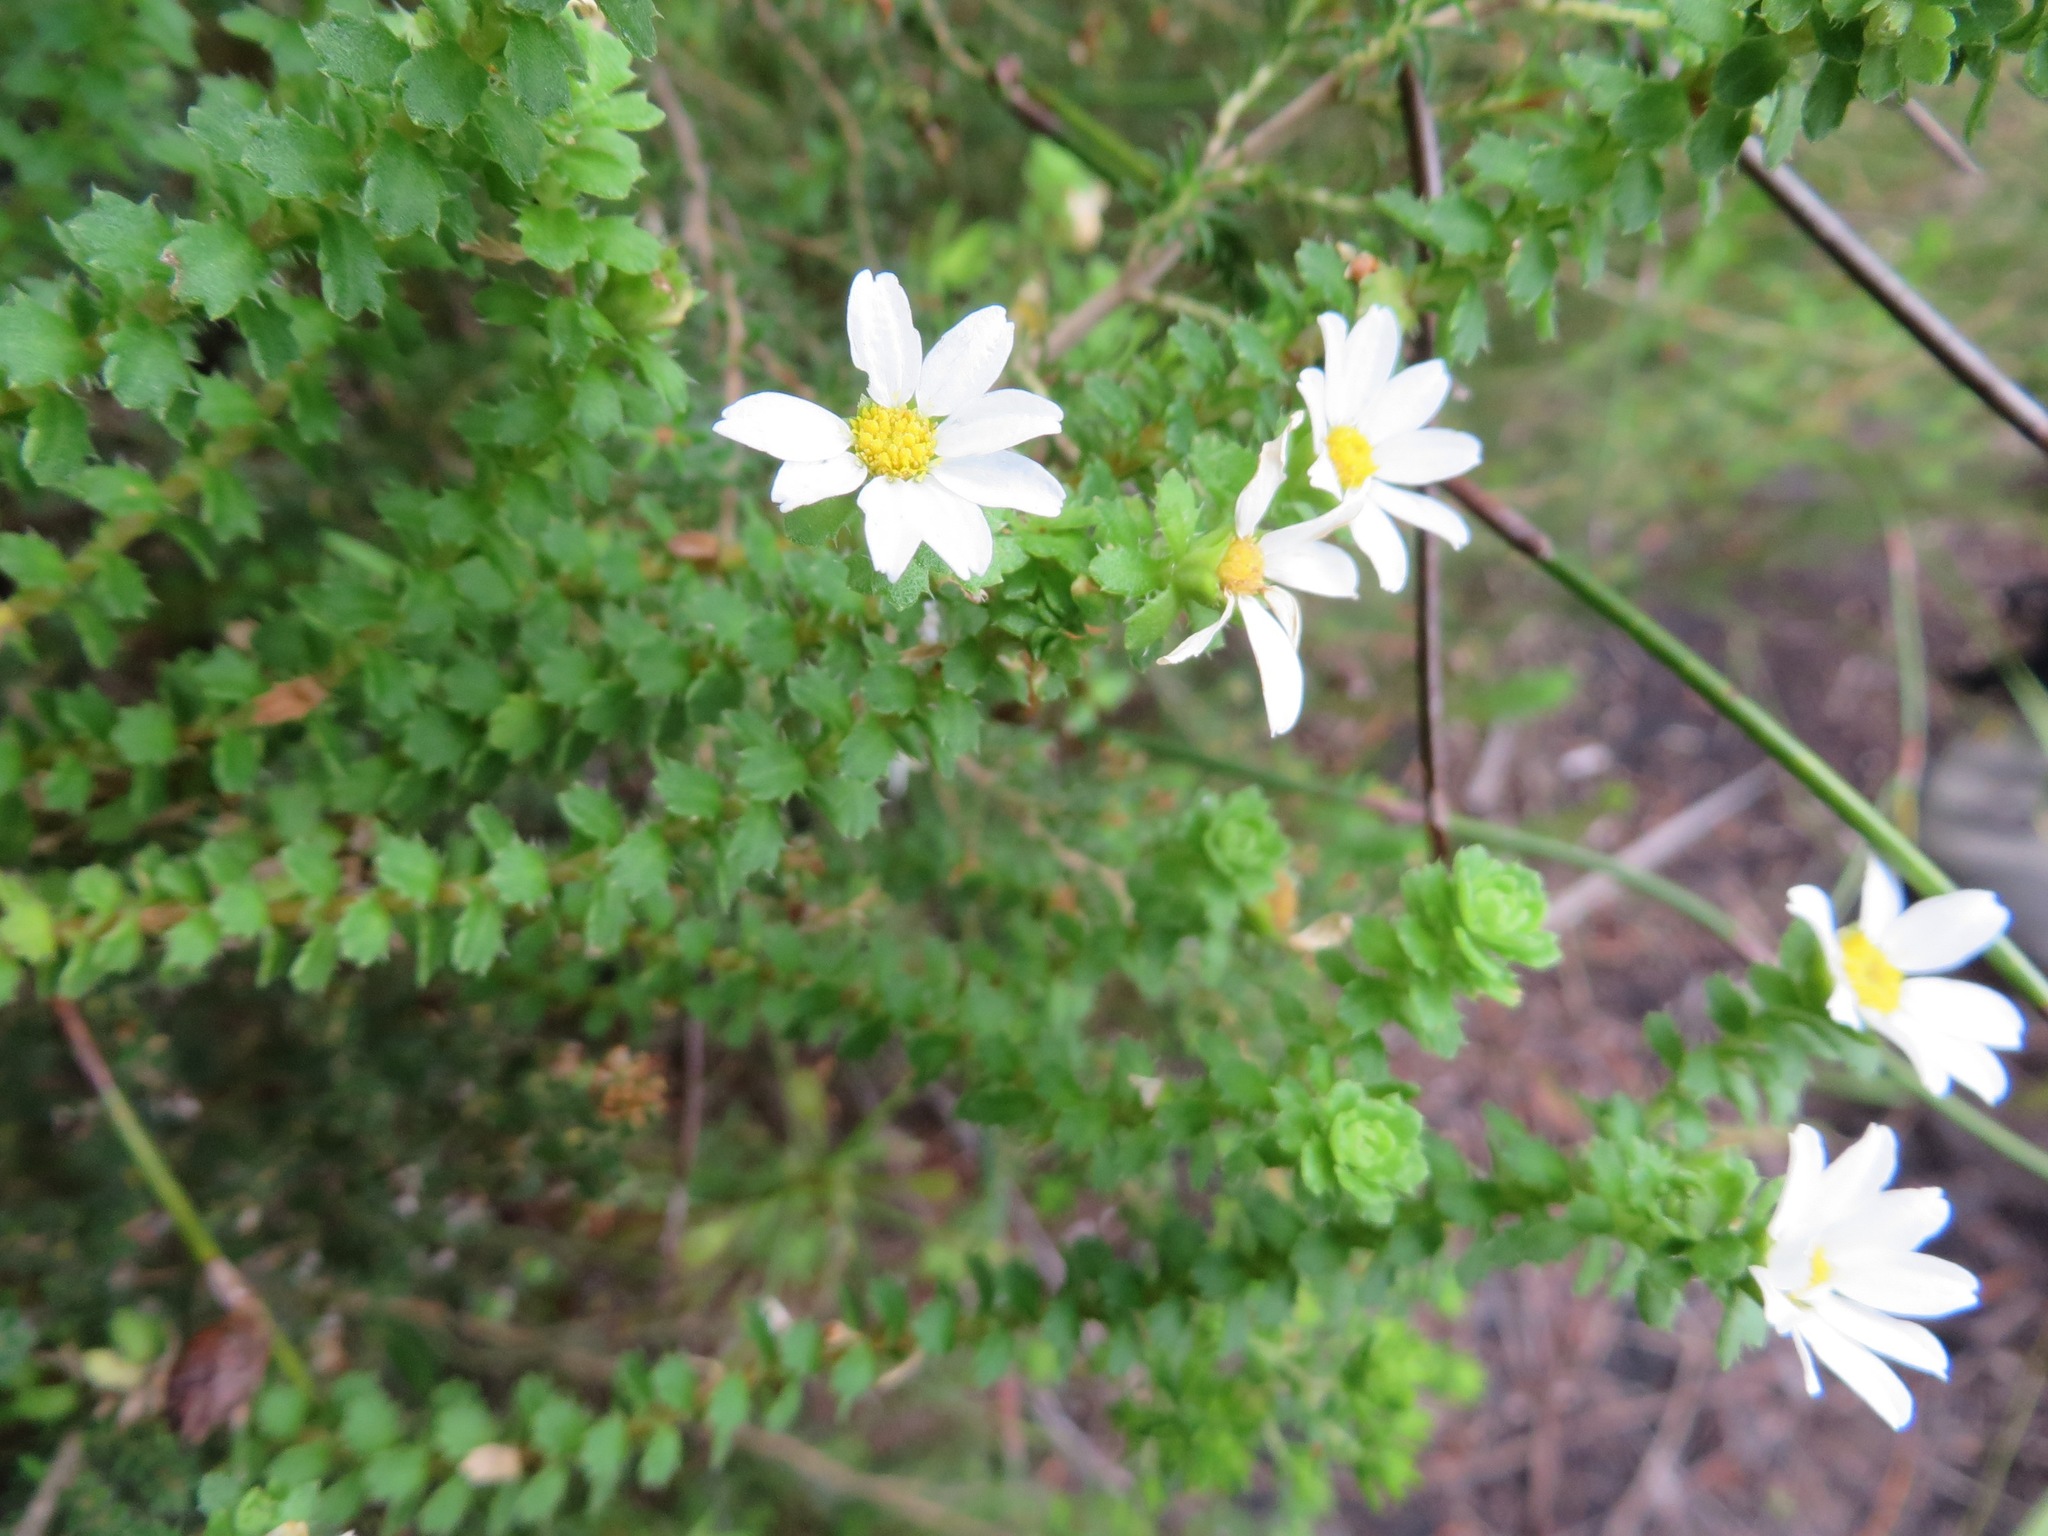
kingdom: Plantae
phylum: Tracheophyta
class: Magnoliopsida
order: Asterales
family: Asteraceae
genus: Osmitopsis
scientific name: Osmitopsis parvifolia
